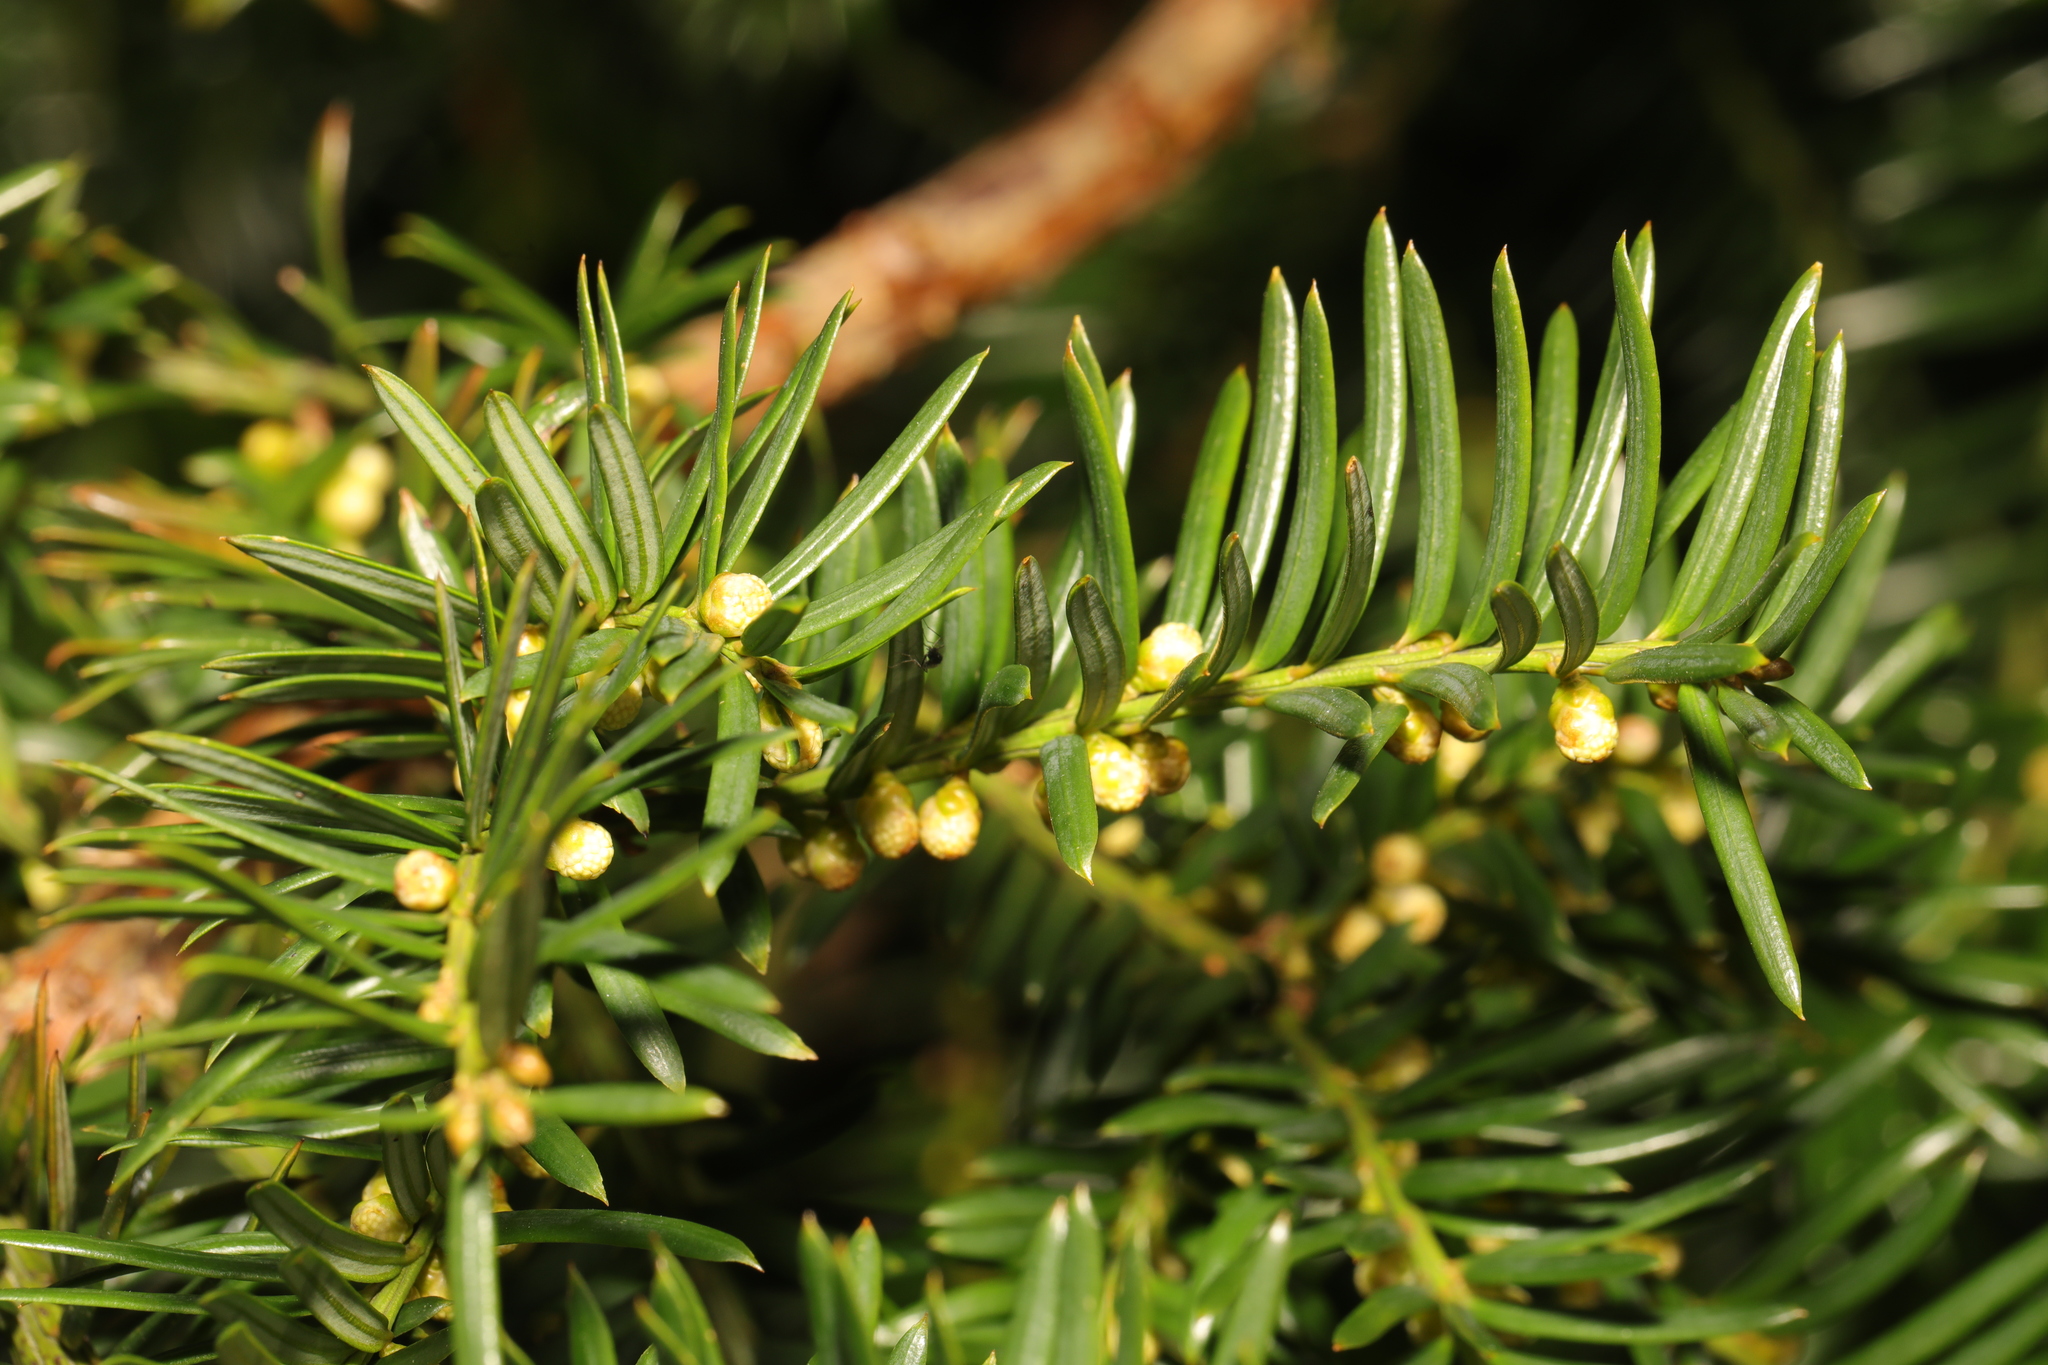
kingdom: Plantae
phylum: Tracheophyta
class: Pinopsida
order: Pinales
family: Taxaceae
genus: Taxus
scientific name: Taxus baccata
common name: Yew
